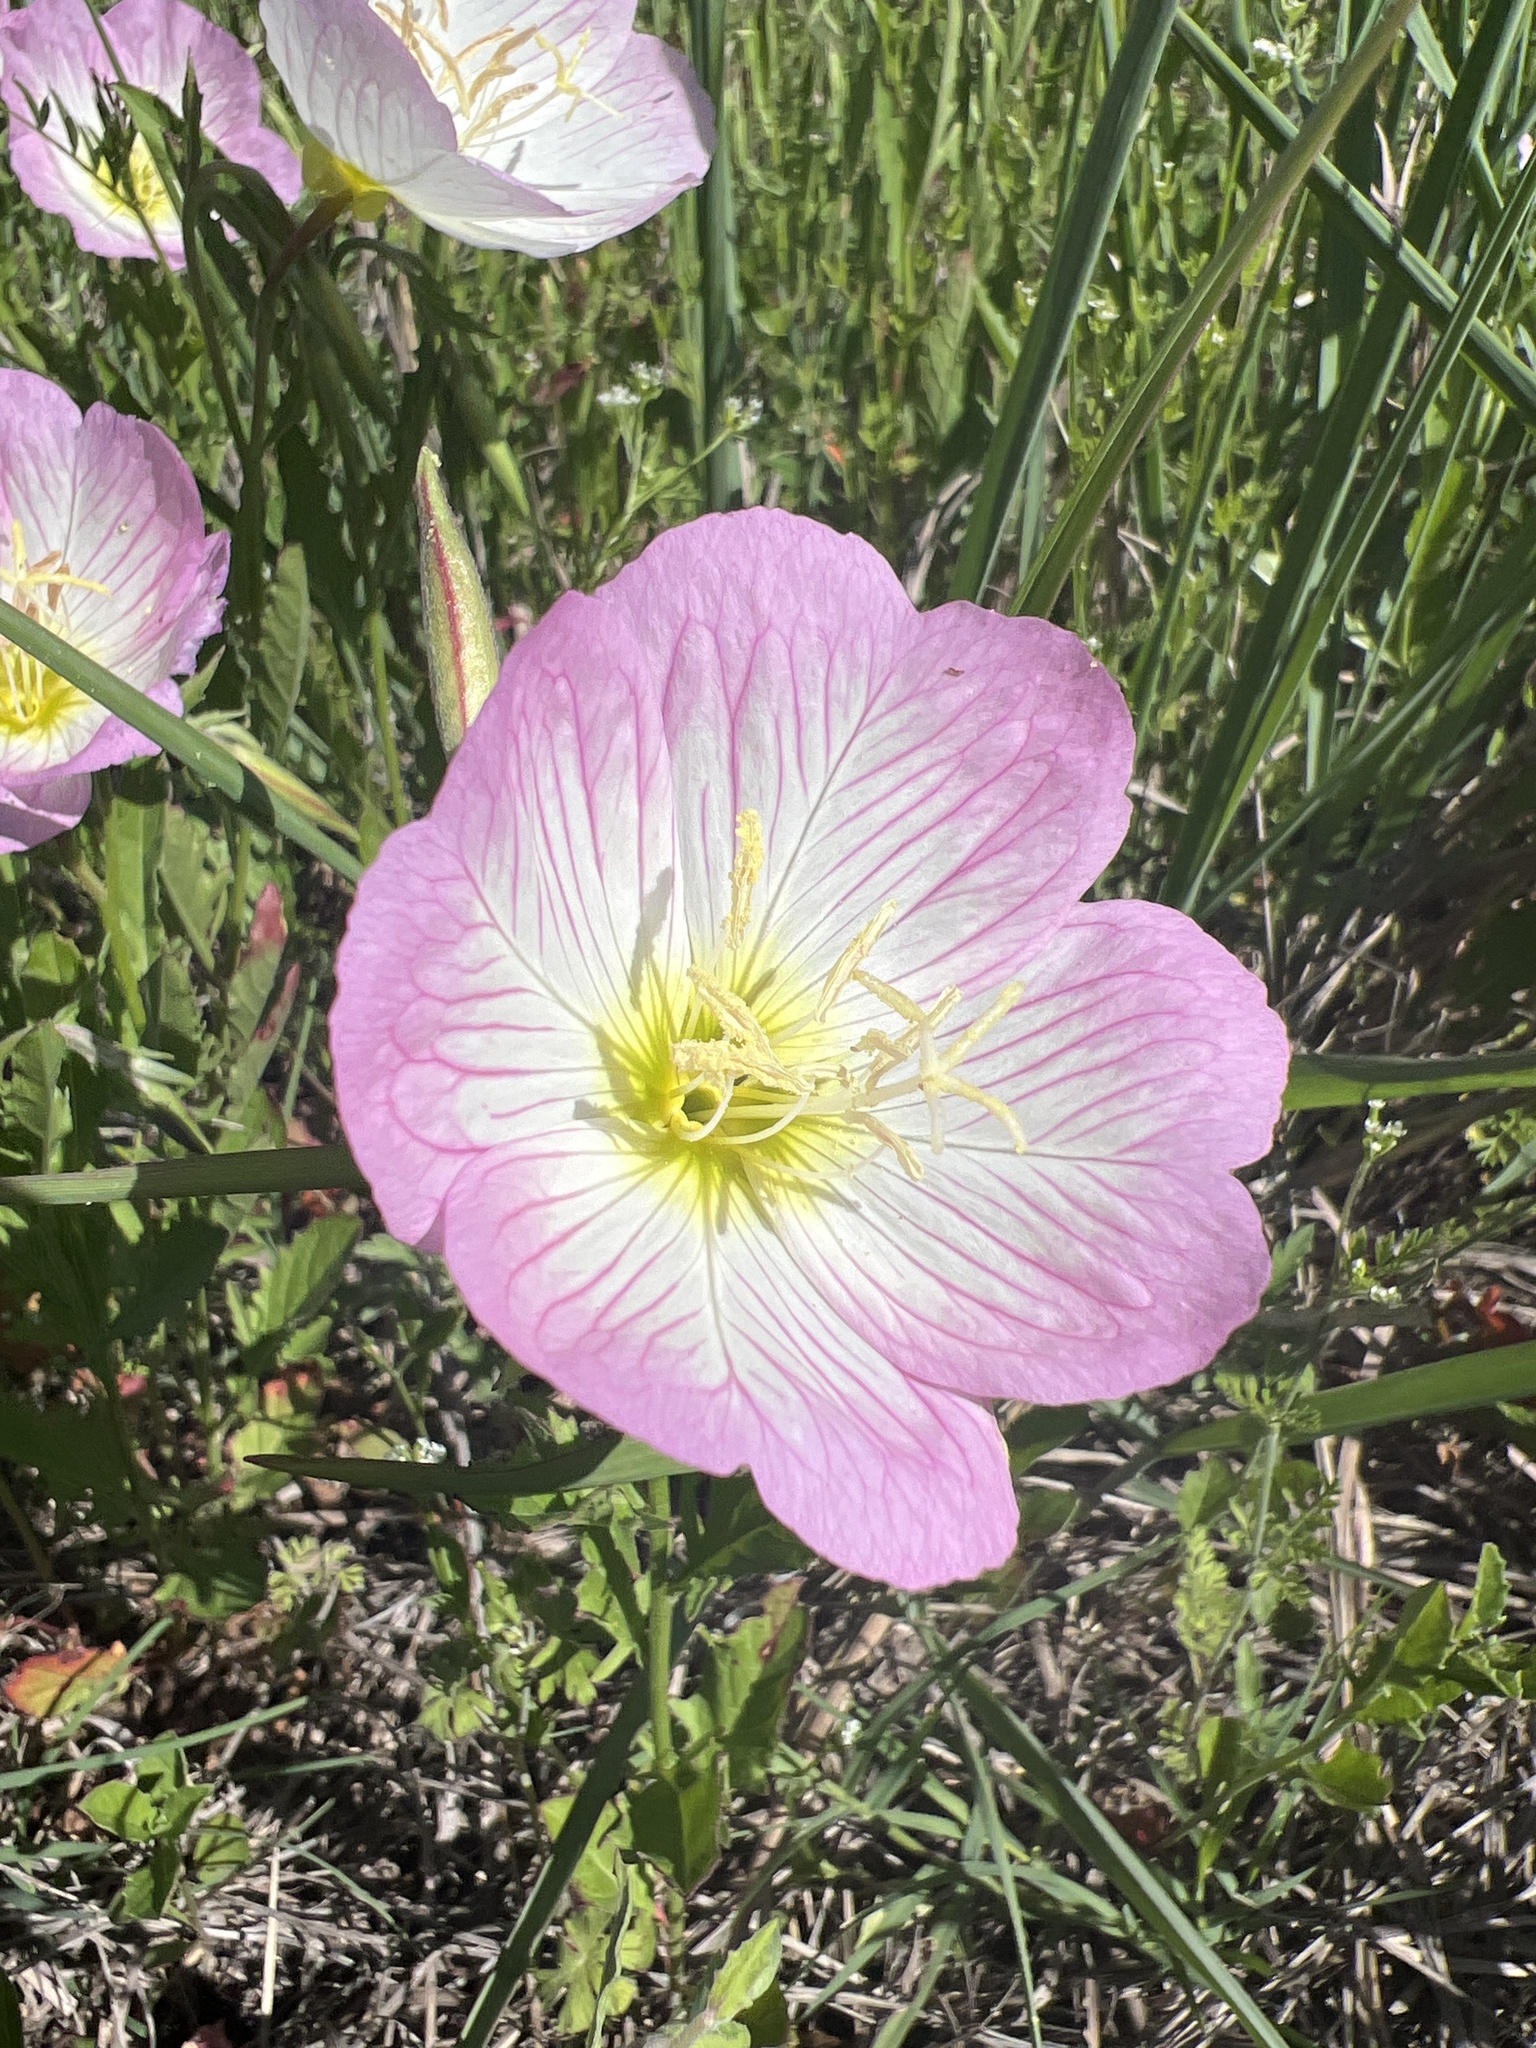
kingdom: Plantae
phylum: Tracheophyta
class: Magnoliopsida
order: Myrtales
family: Onagraceae
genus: Oenothera
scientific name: Oenothera speciosa
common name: White evening-primrose
